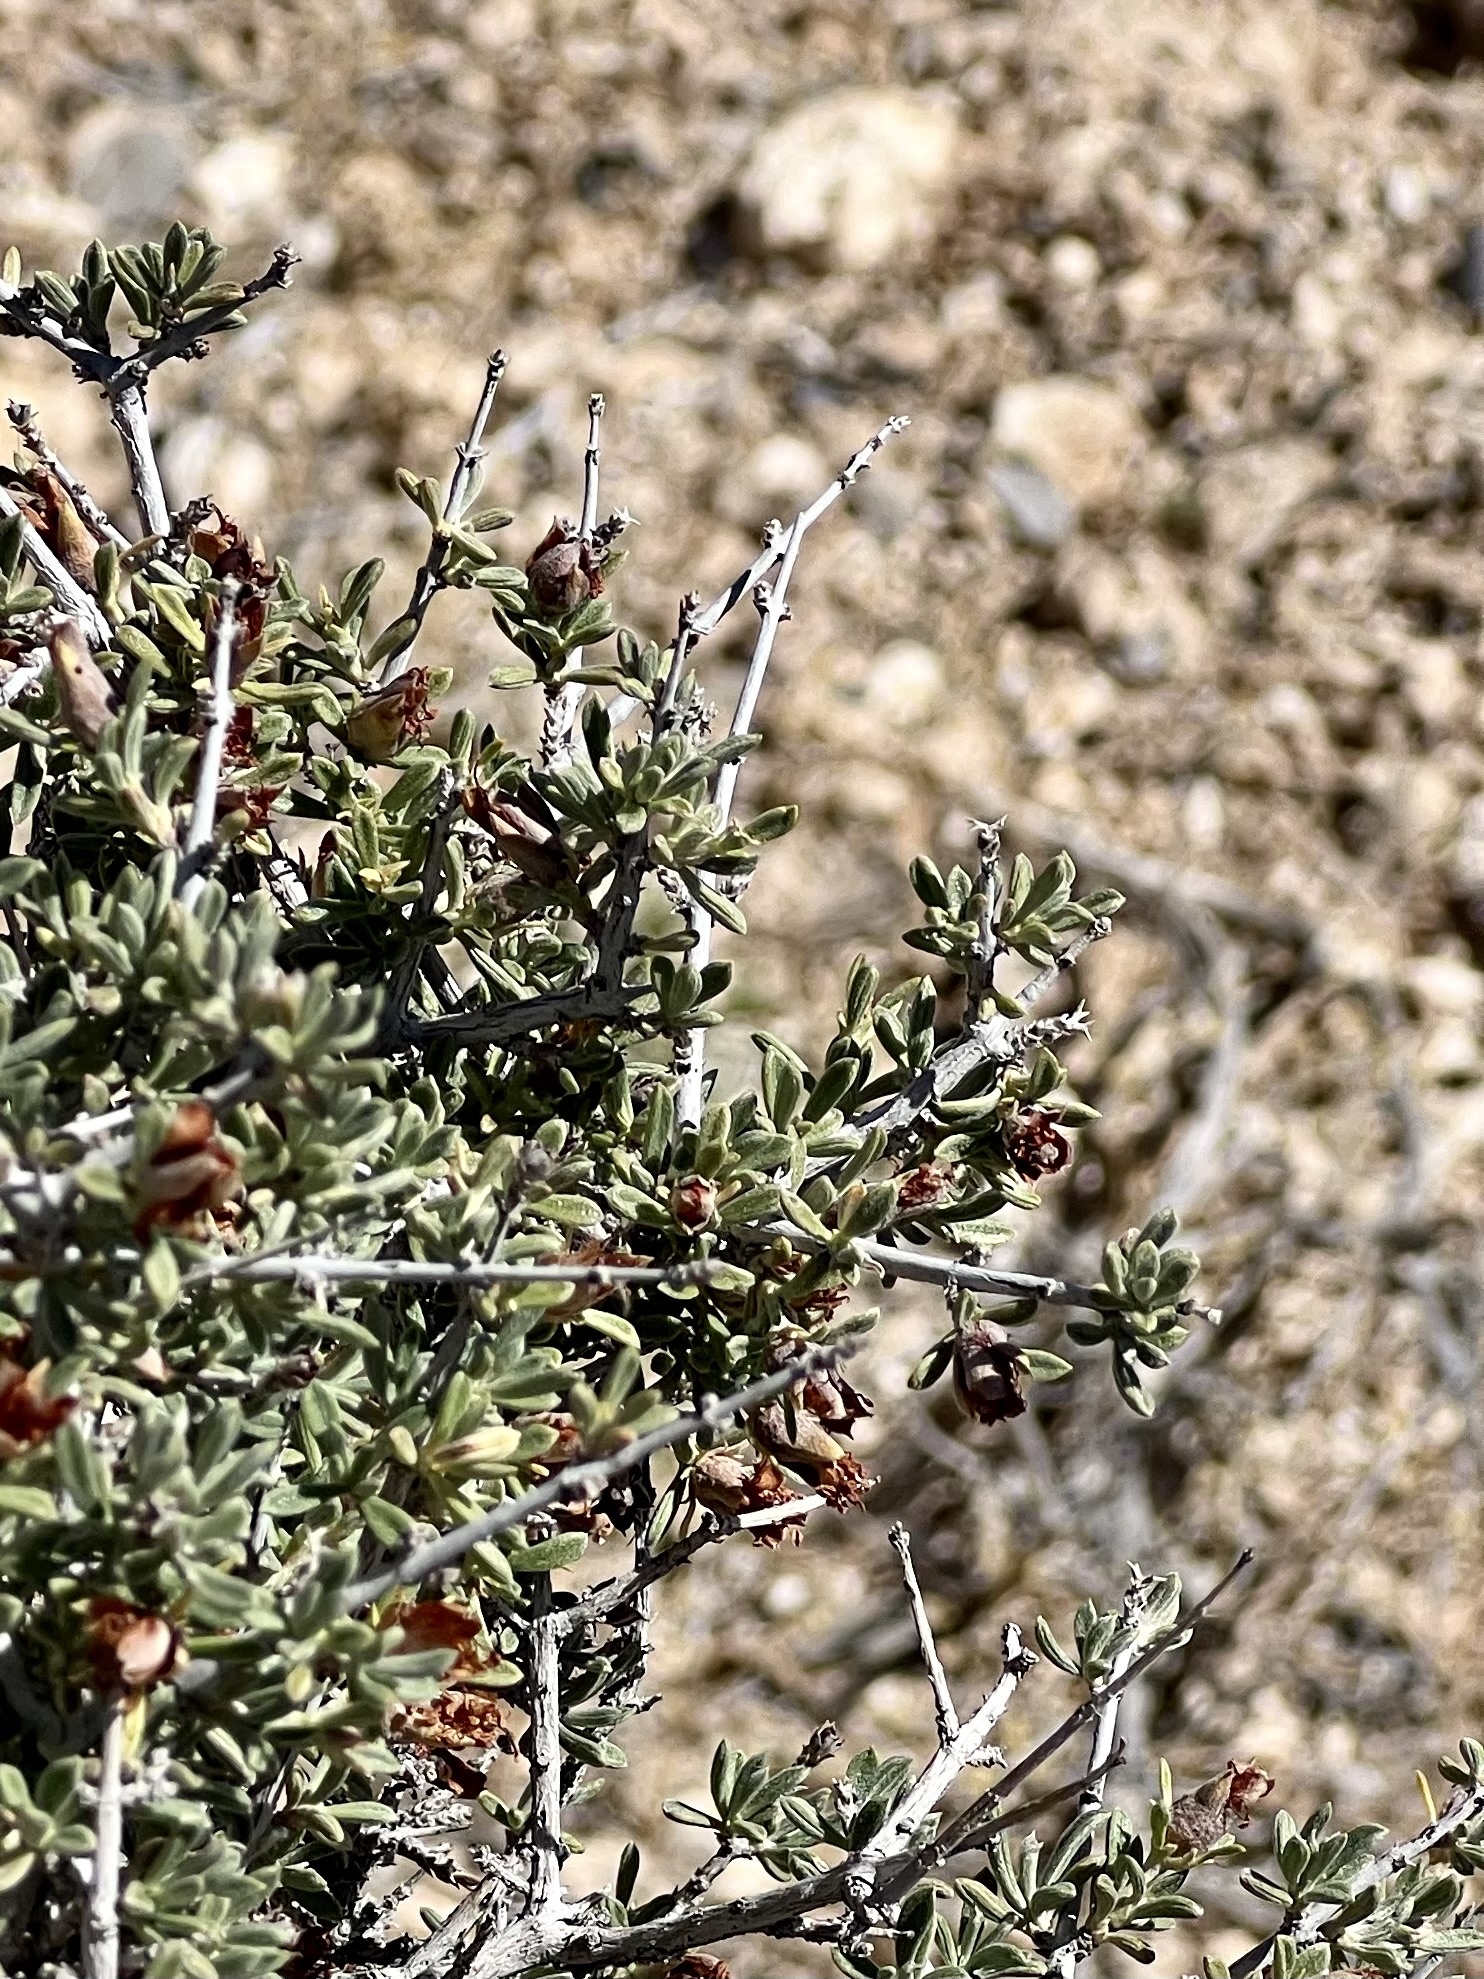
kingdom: Plantae
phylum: Tracheophyta
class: Magnoliopsida
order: Rosales
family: Rosaceae
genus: Coleogyne
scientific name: Coleogyne ramosissima
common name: Blackbrush
